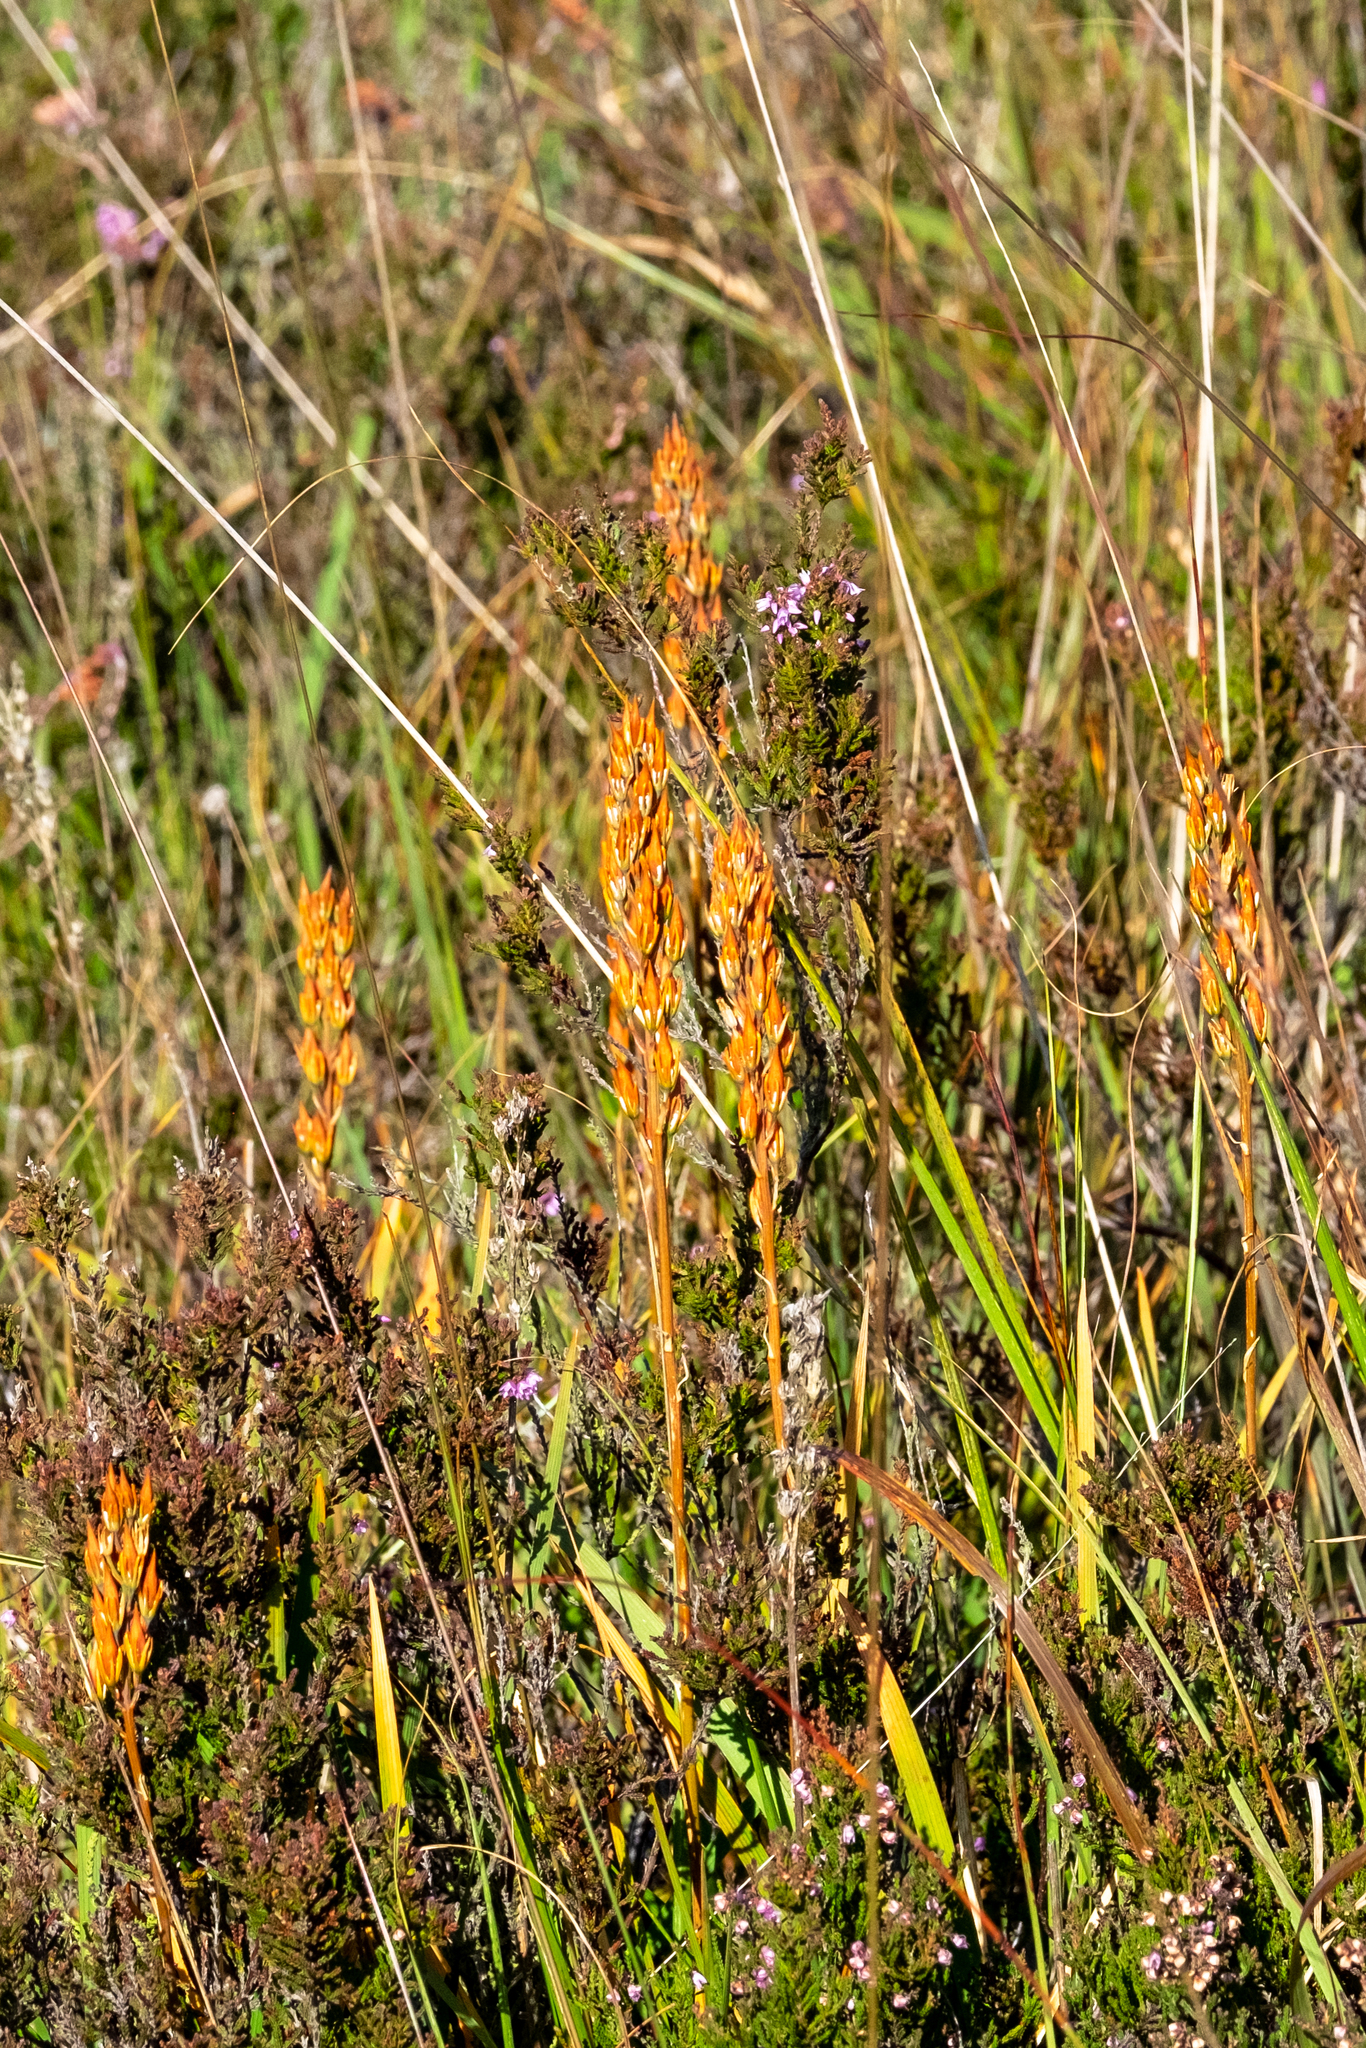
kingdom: Plantae
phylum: Tracheophyta
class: Liliopsida
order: Dioscoreales
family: Nartheciaceae
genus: Narthecium
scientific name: Narthecium ossifragum
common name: Bog asphodel
